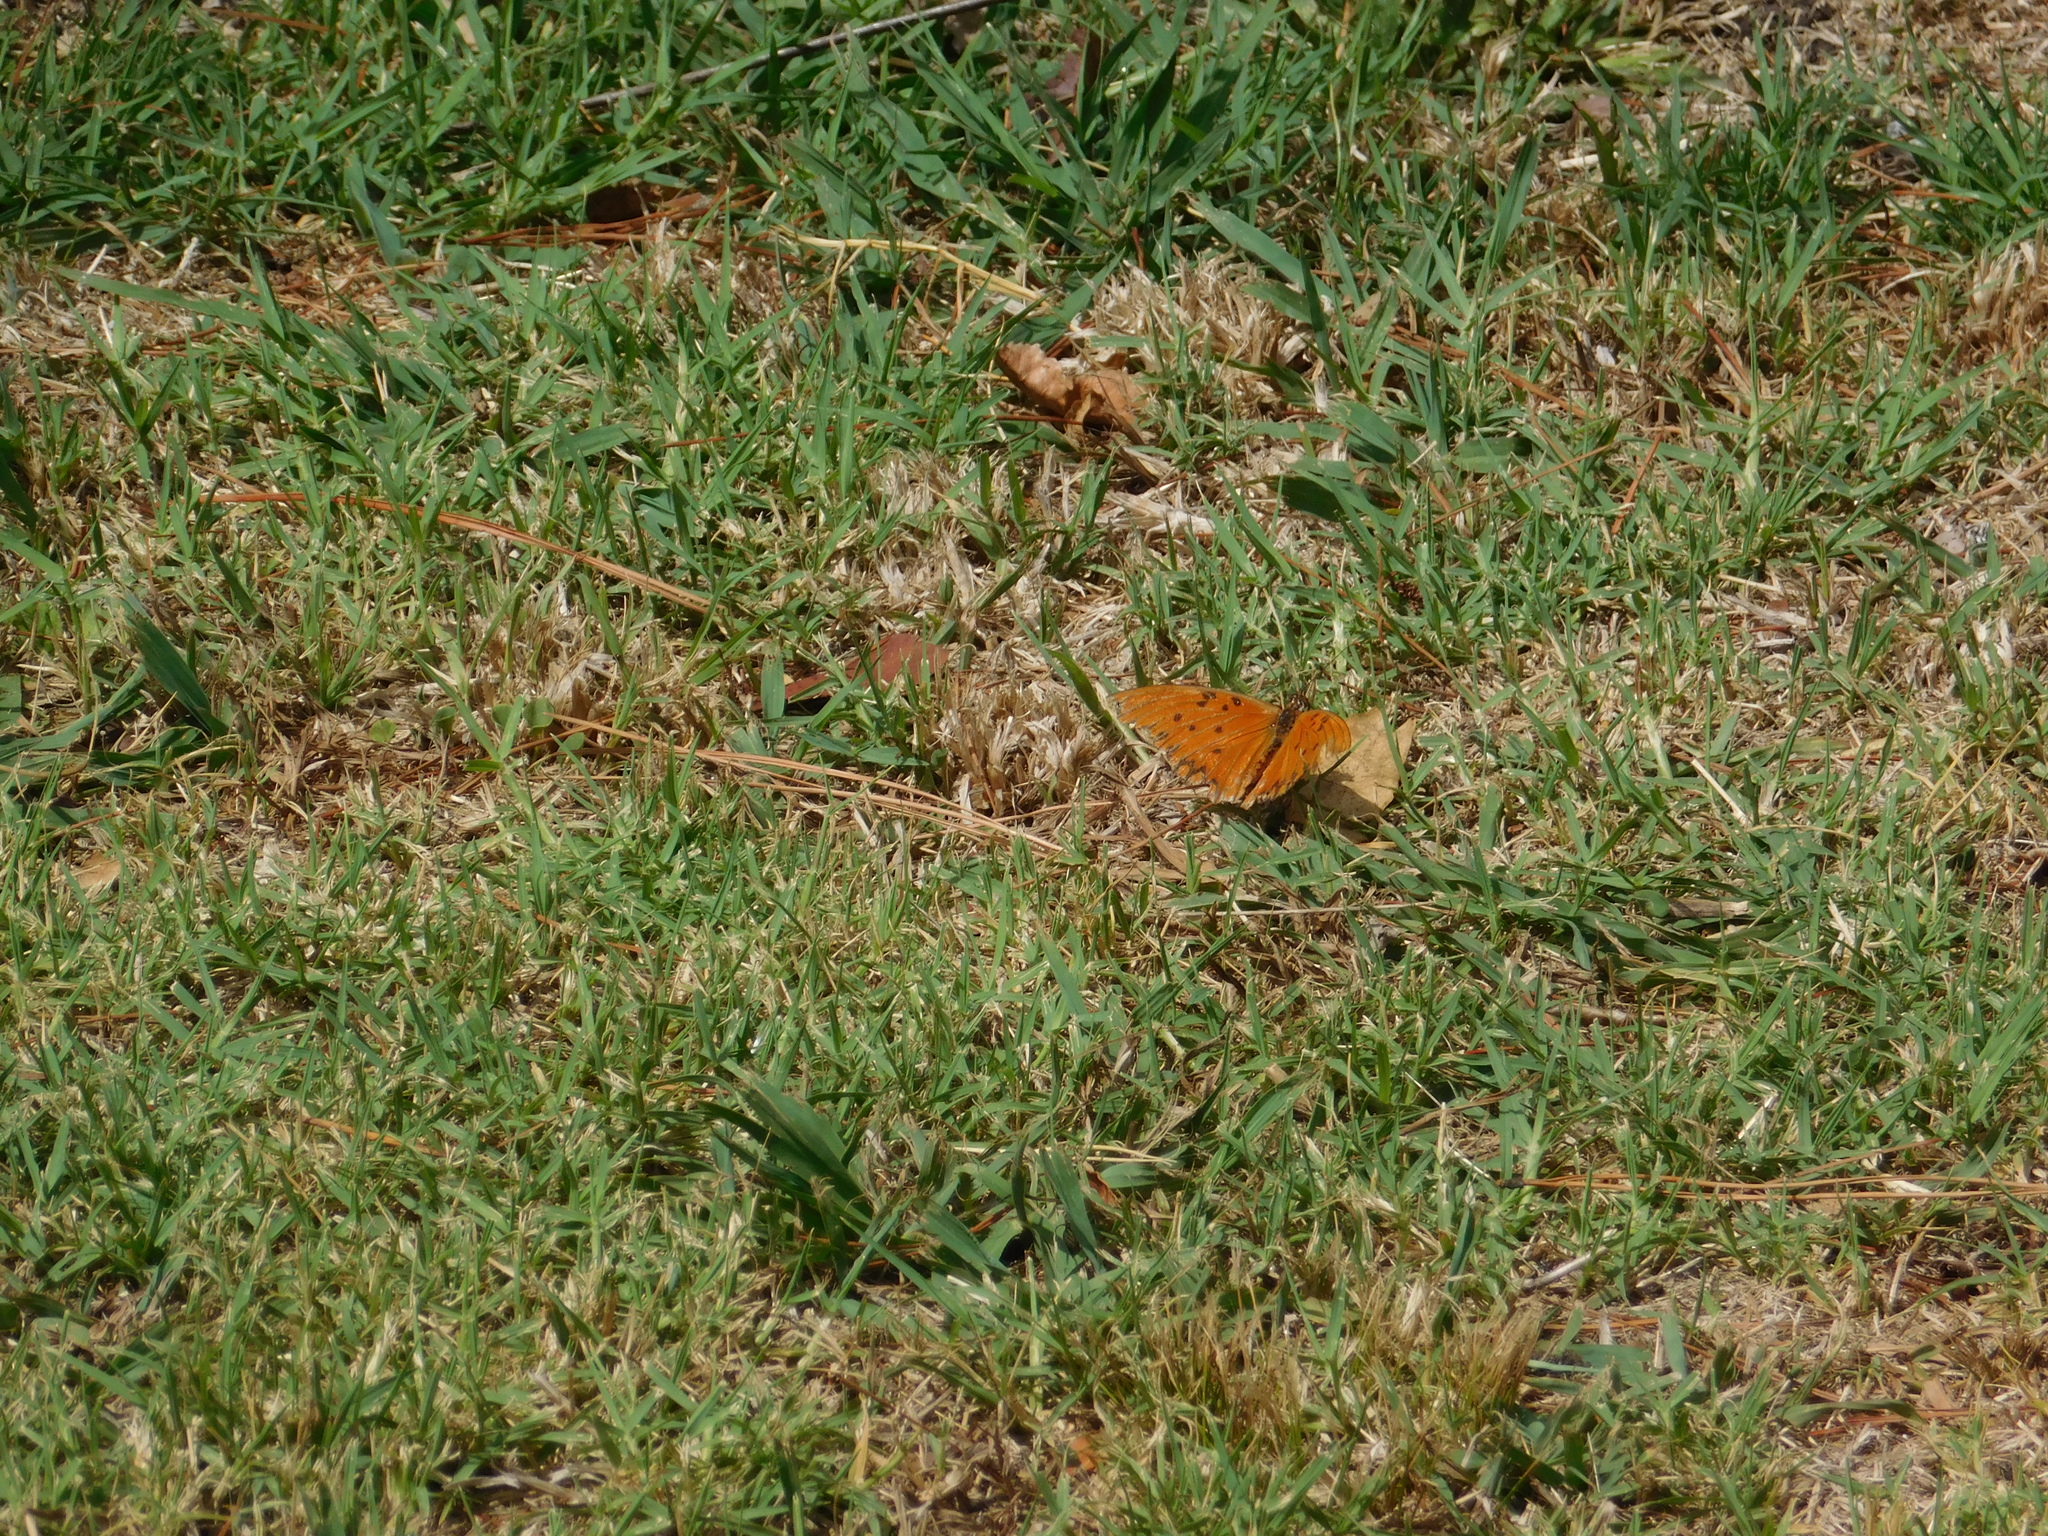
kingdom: Animalia
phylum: Arthropoda
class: Insecta
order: Lepidoptera
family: Nymphalidae
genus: Dione
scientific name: Dione vanillae
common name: Gulf fritillary
